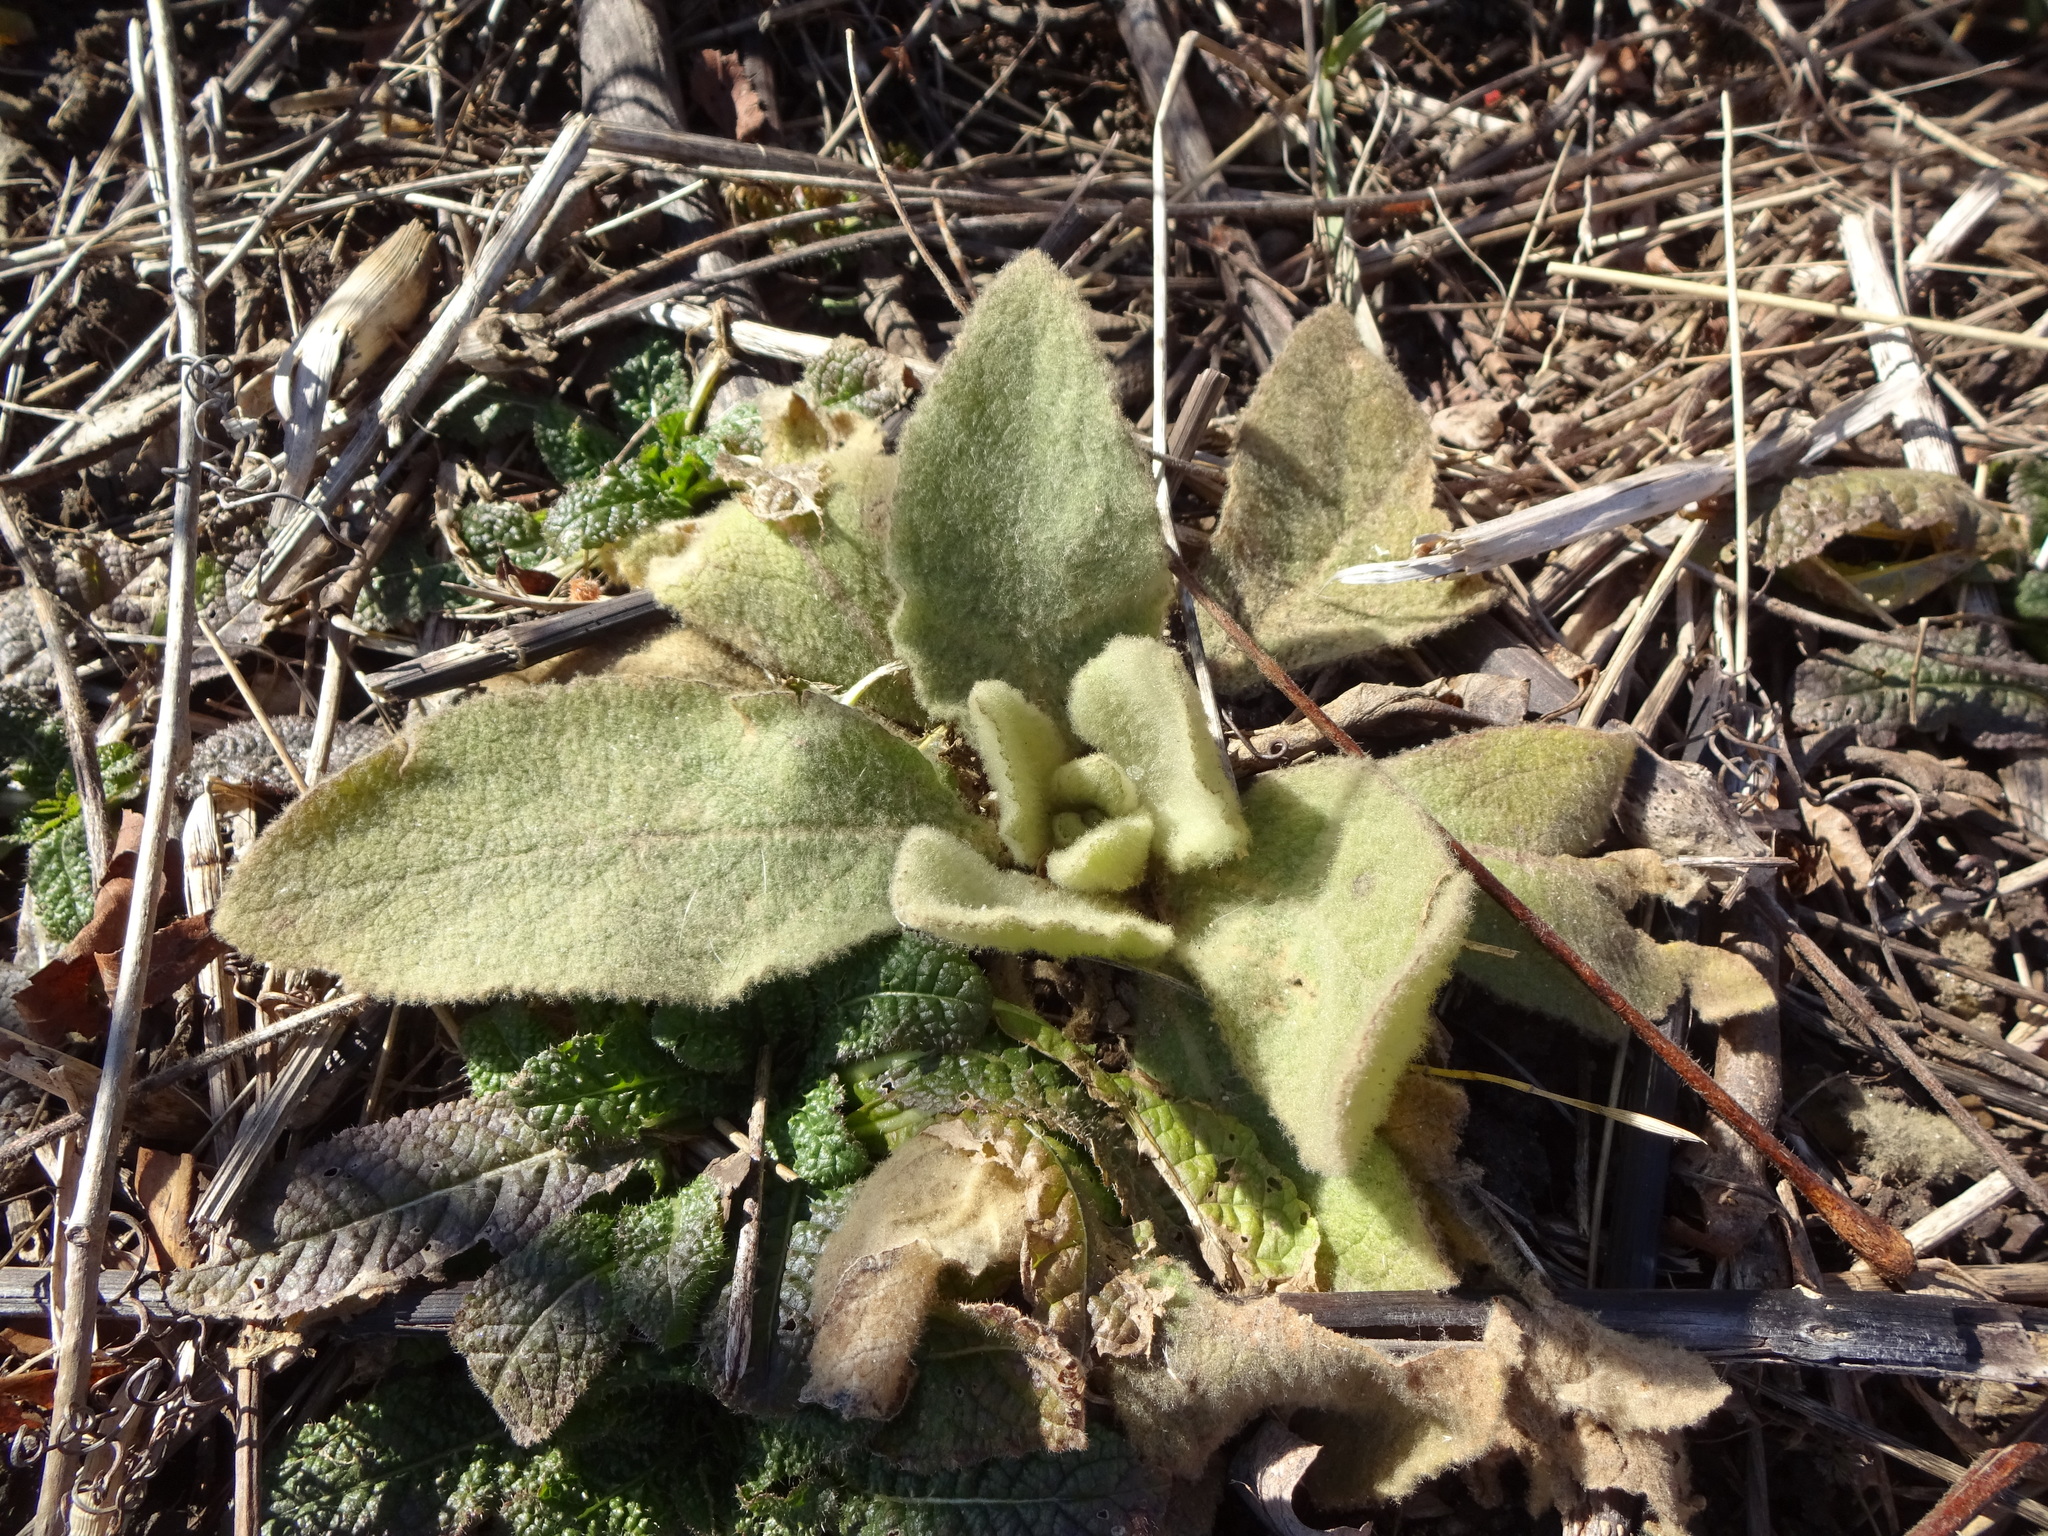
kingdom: Plantae
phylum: Tracheophyta
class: Magnoliopsida
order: Lamiales
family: Scrophulariaceae
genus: Verbascum
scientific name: Verbascum thapsus
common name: Common mullein
